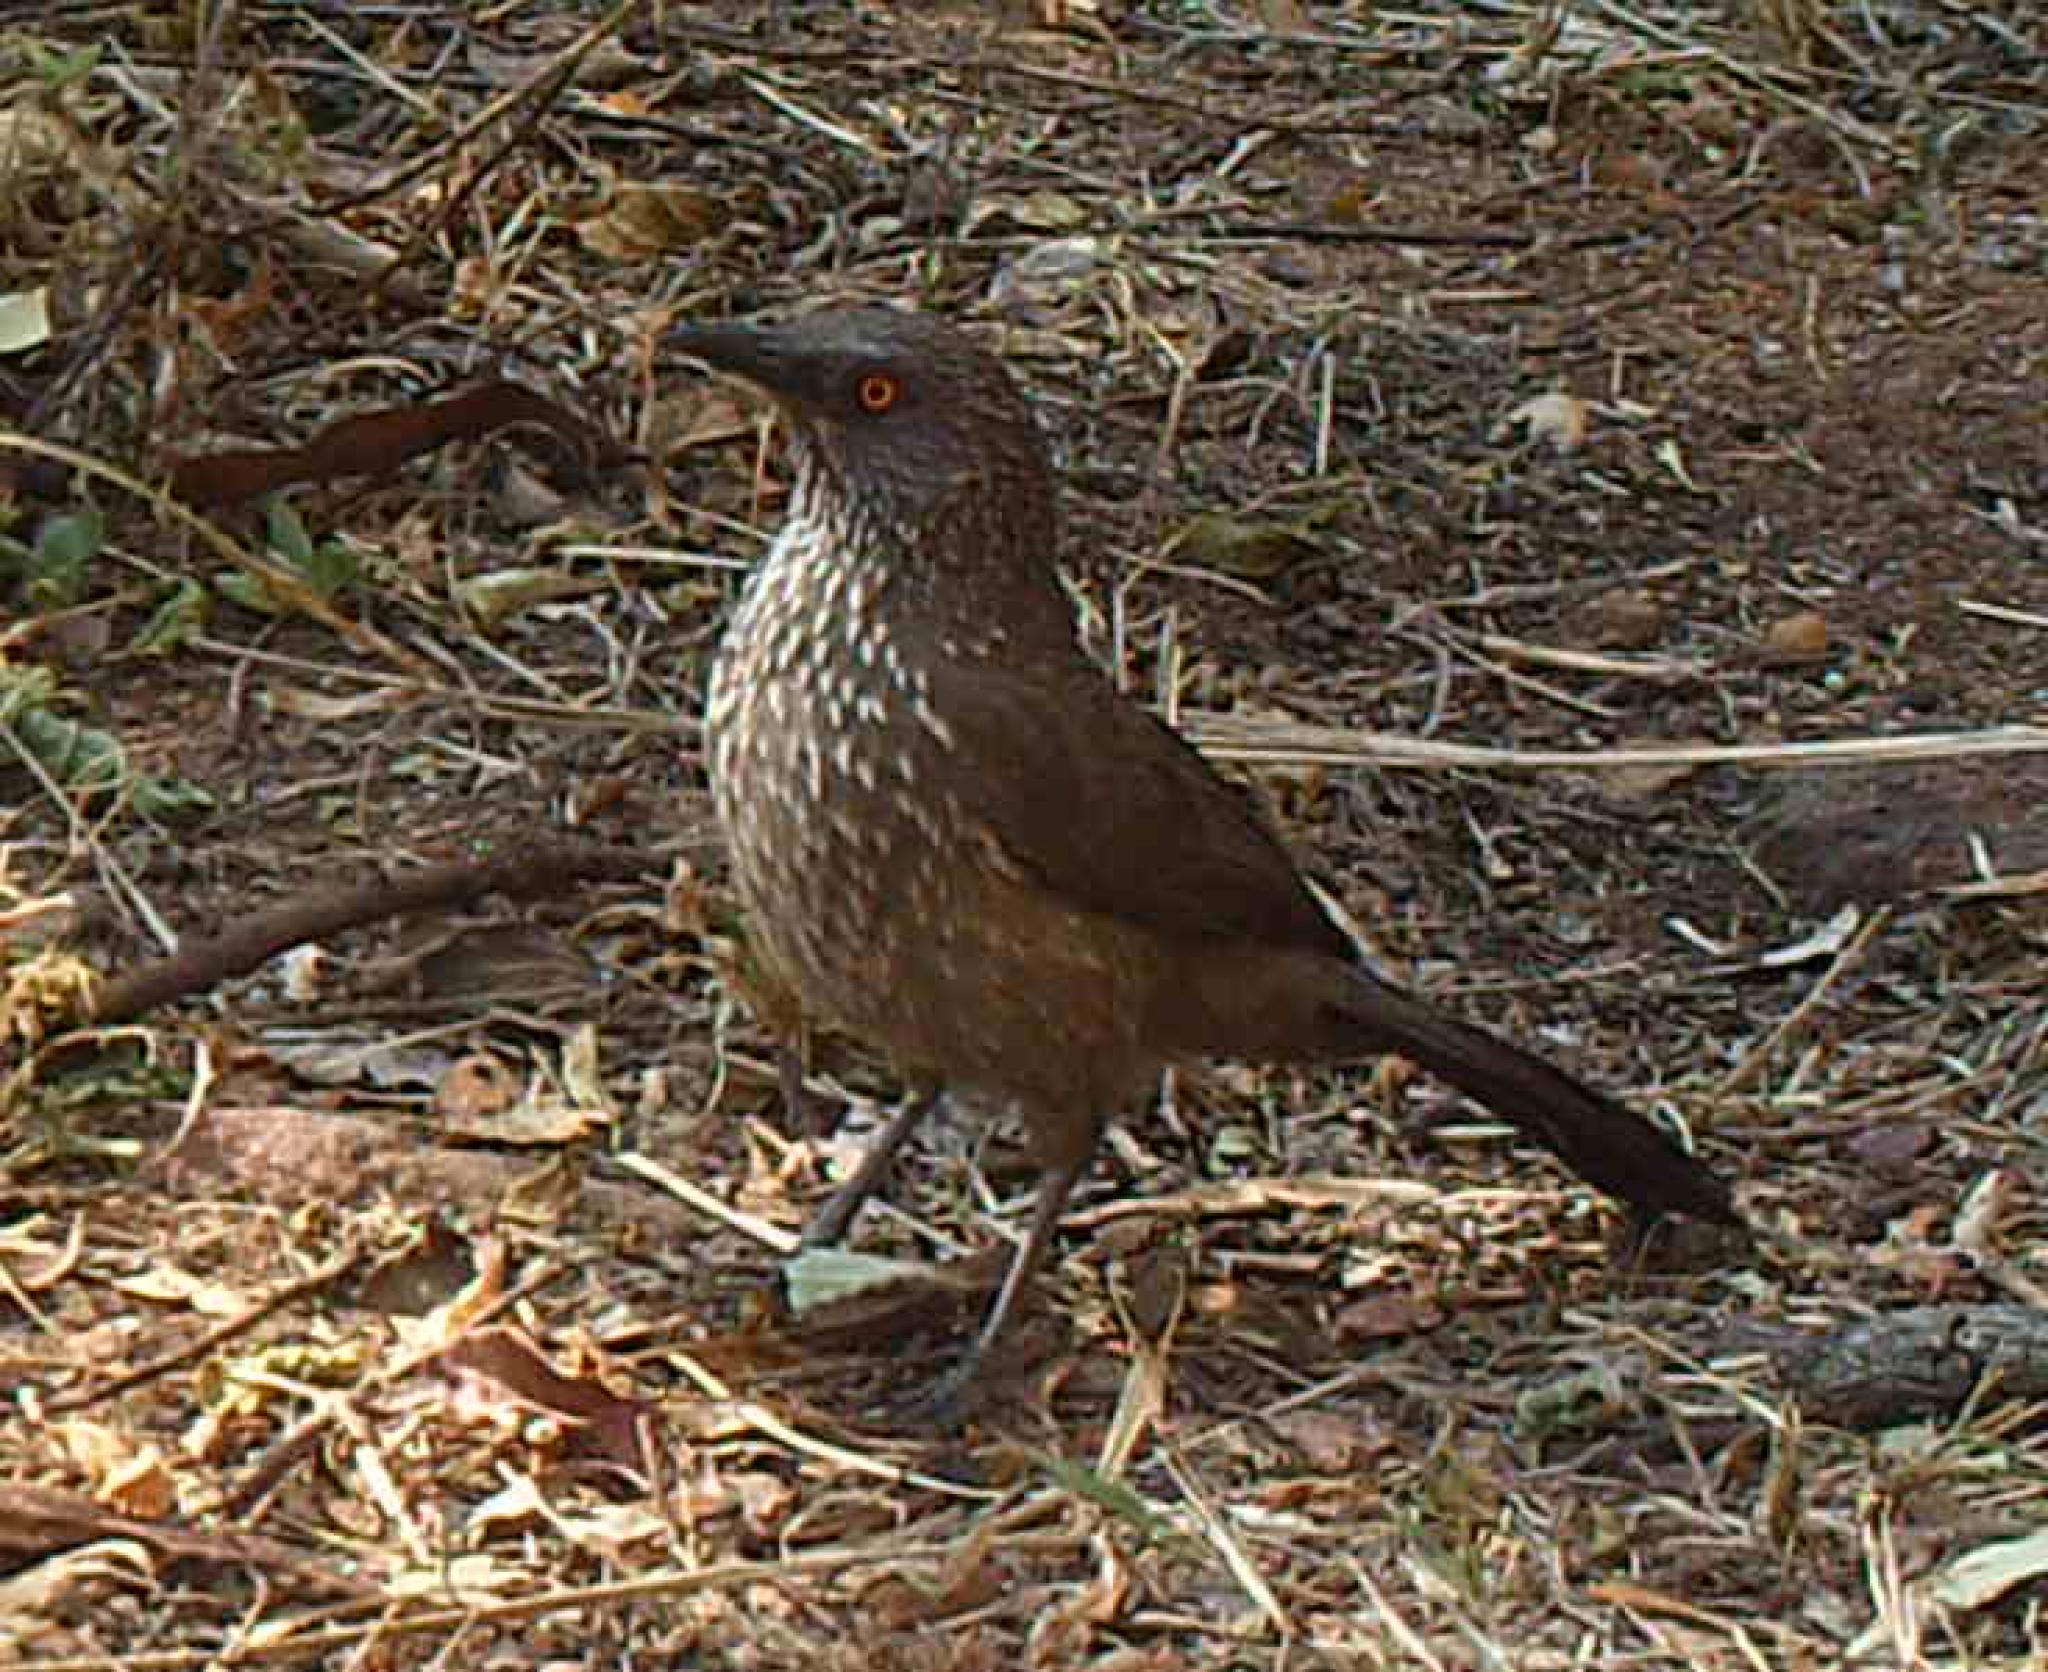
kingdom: Animalia
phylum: Chordata
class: Aves
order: Passeriformes
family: Leiothrichidae
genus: Turdoides
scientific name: Turdoides jardineii
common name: Arrow-marked babbler
